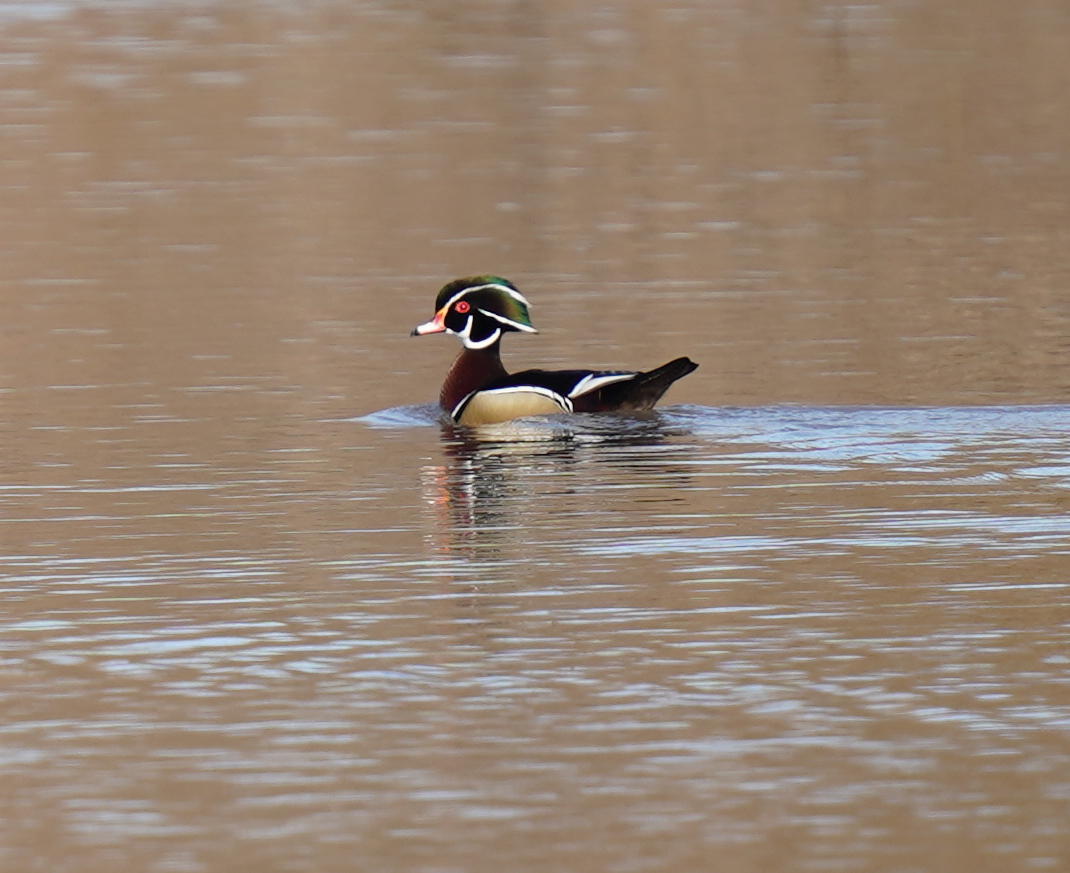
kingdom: Animalia
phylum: Chordata
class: Aves
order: Anseriformes
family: Anatidae
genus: Aix
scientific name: Aix sponsa
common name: Wood duck
